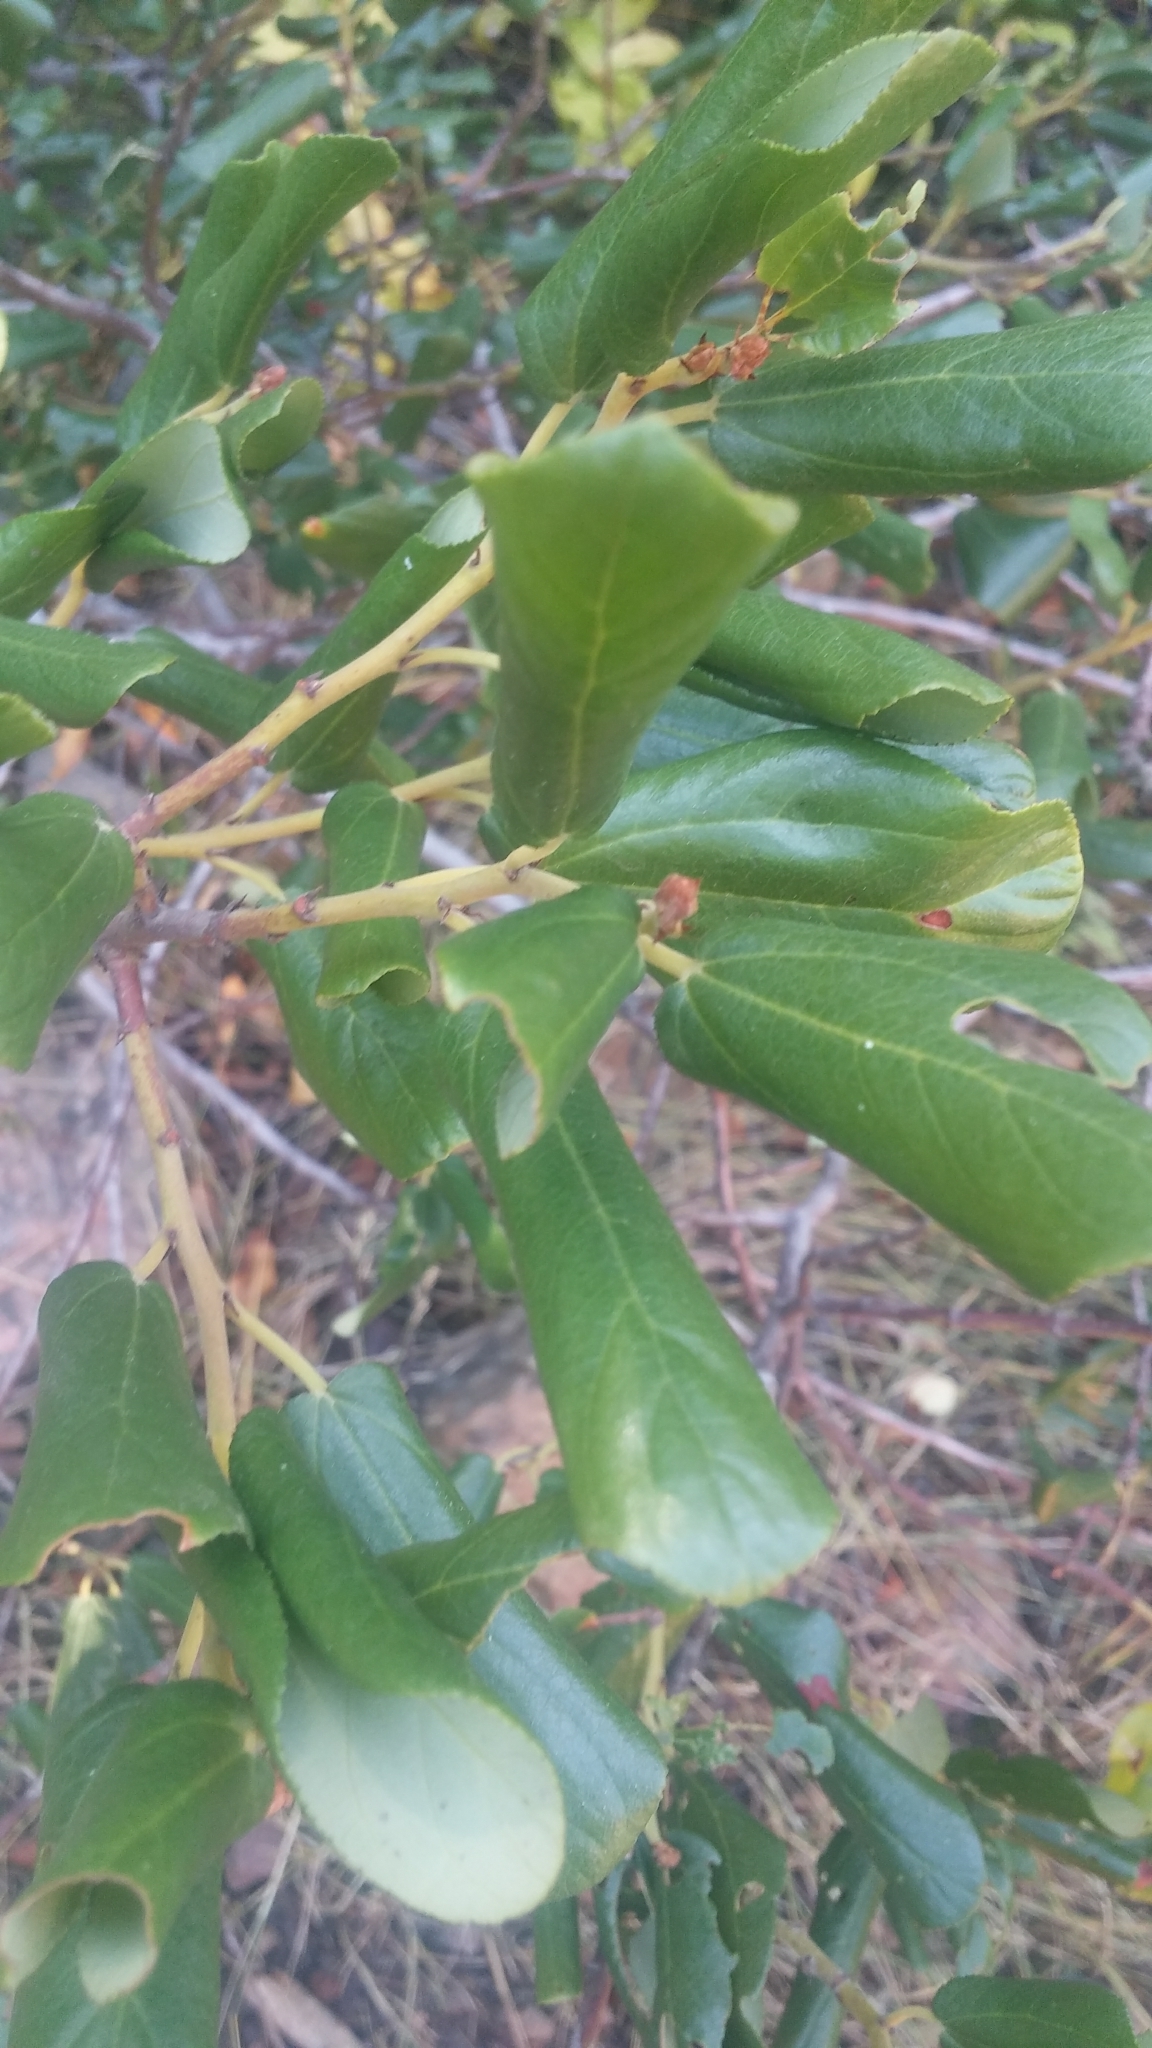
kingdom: Plantae
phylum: Tracheophyta
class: Magnoliopsida
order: Rosales
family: Rhamnaceae
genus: Ceanothus
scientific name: Ceanothus velutinus
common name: Snowbrush
